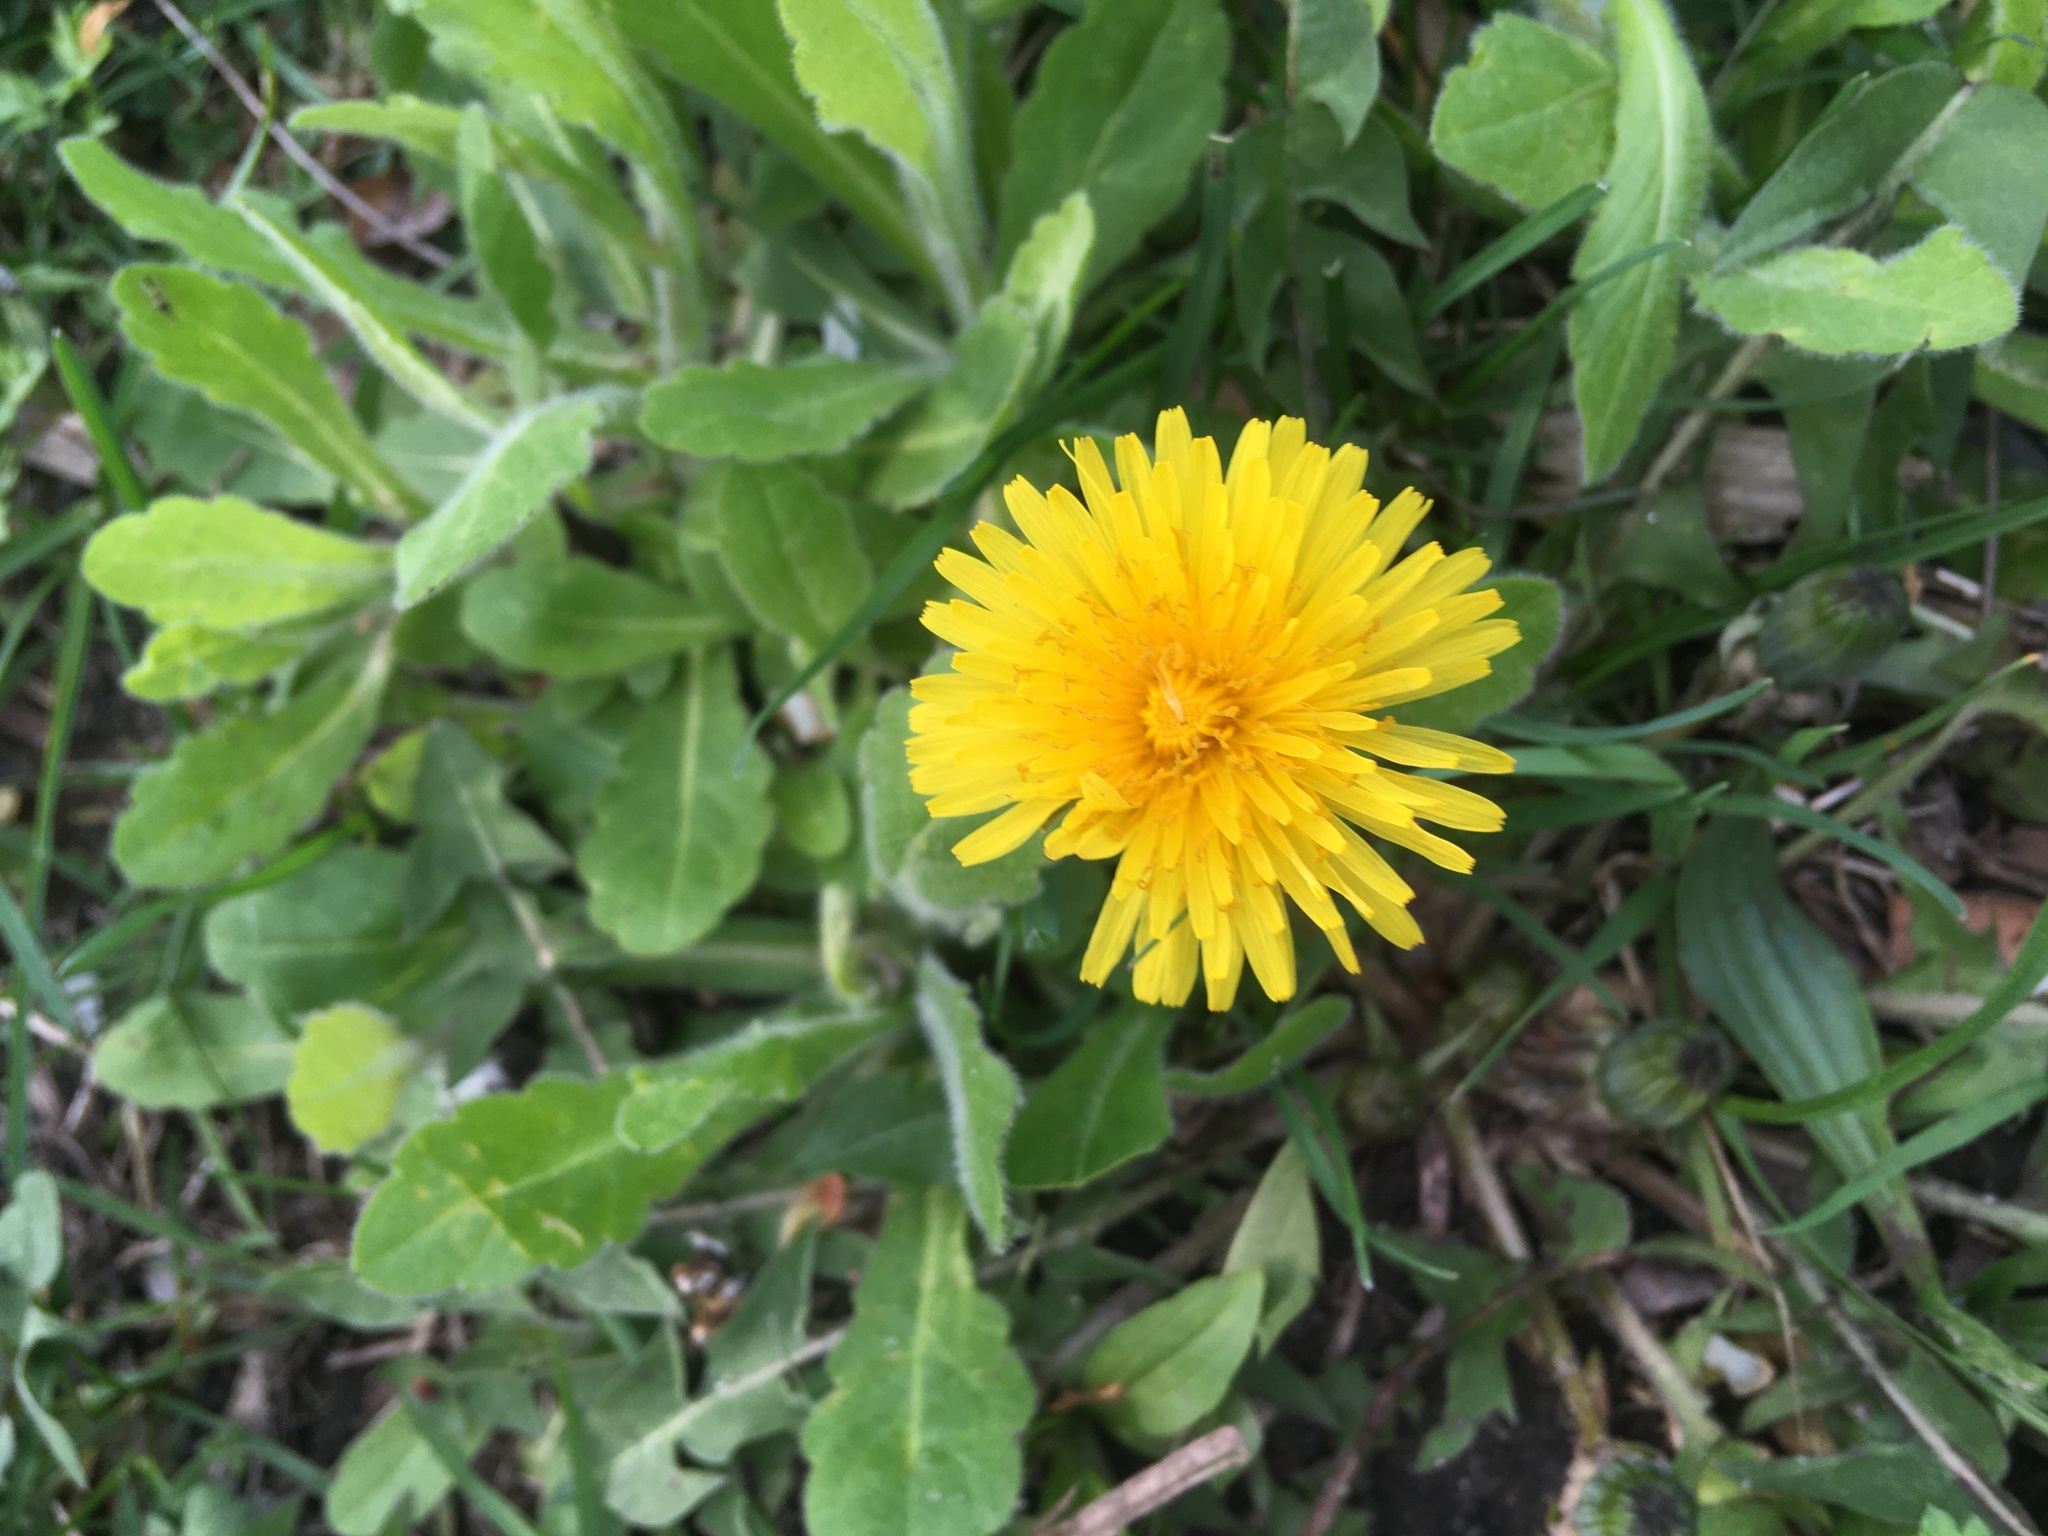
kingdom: Plantae
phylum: Tracheophyta
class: Magnoliopsida
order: Asterales
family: Asteraceae
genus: Taraxacum
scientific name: Taraxacum officinale
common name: Common dandelion
